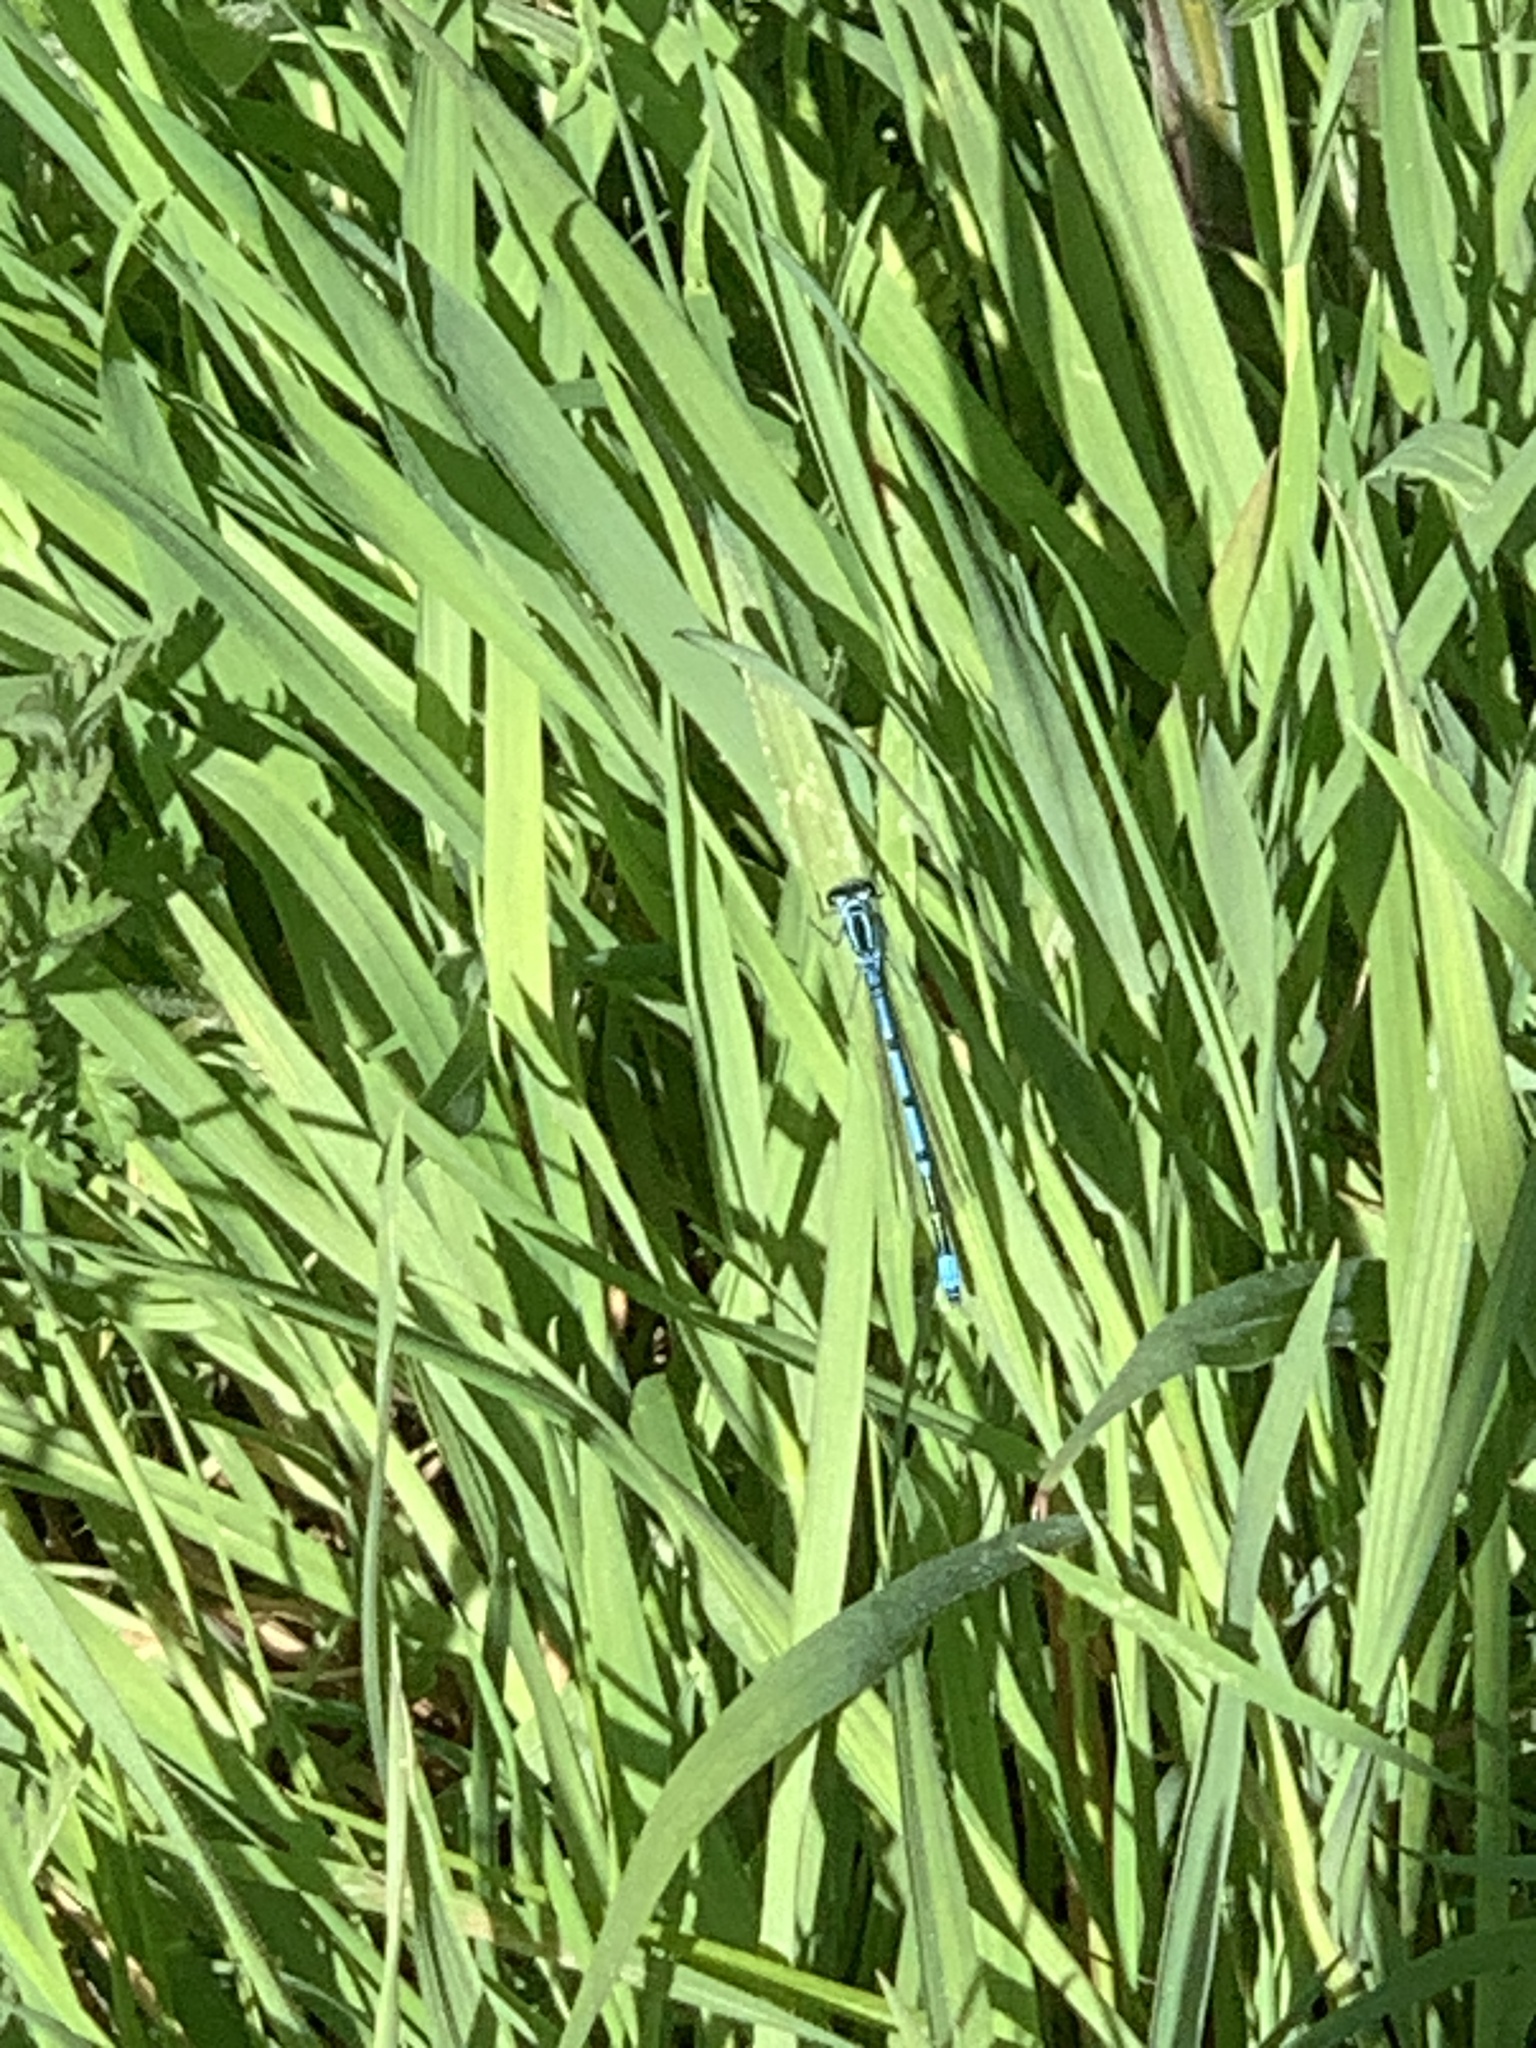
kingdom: Animalia
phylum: Arthropoda
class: Insecta
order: Odonata
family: Coenagrionidae
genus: Enallagma
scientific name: Enallagma cyathigerum
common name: Common blue damselfly
